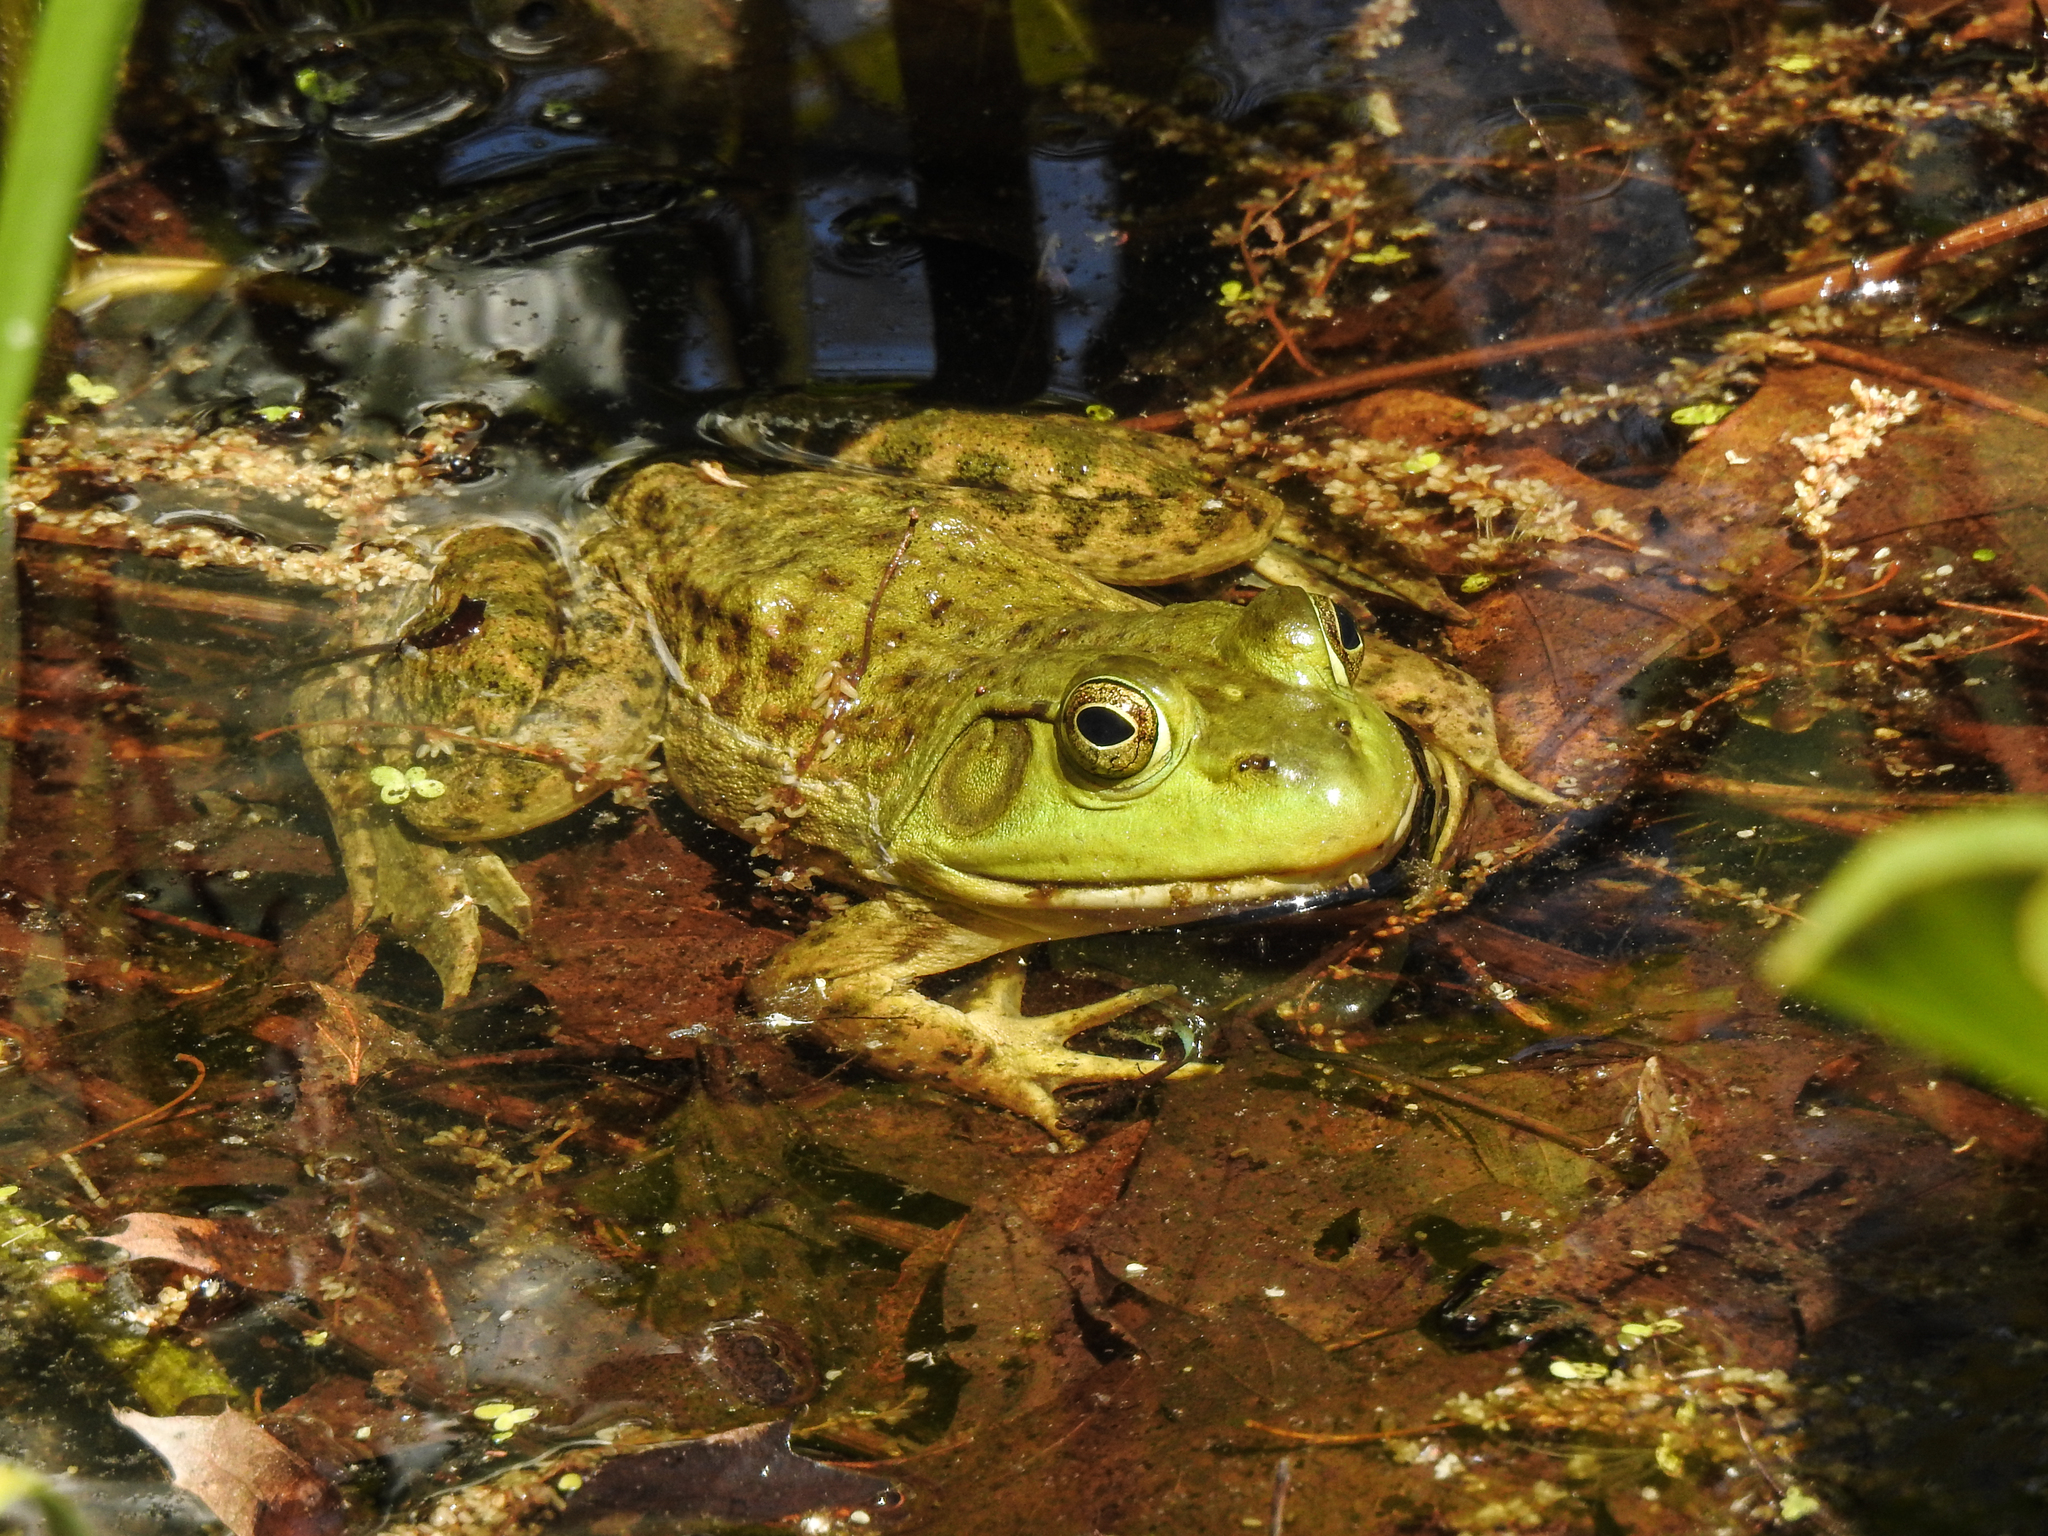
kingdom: Animalia
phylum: Chordata
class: Amphibia
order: Anura
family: Ranidae
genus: Lithobates
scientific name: Lithobates catesbeianus
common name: American bullfrog
